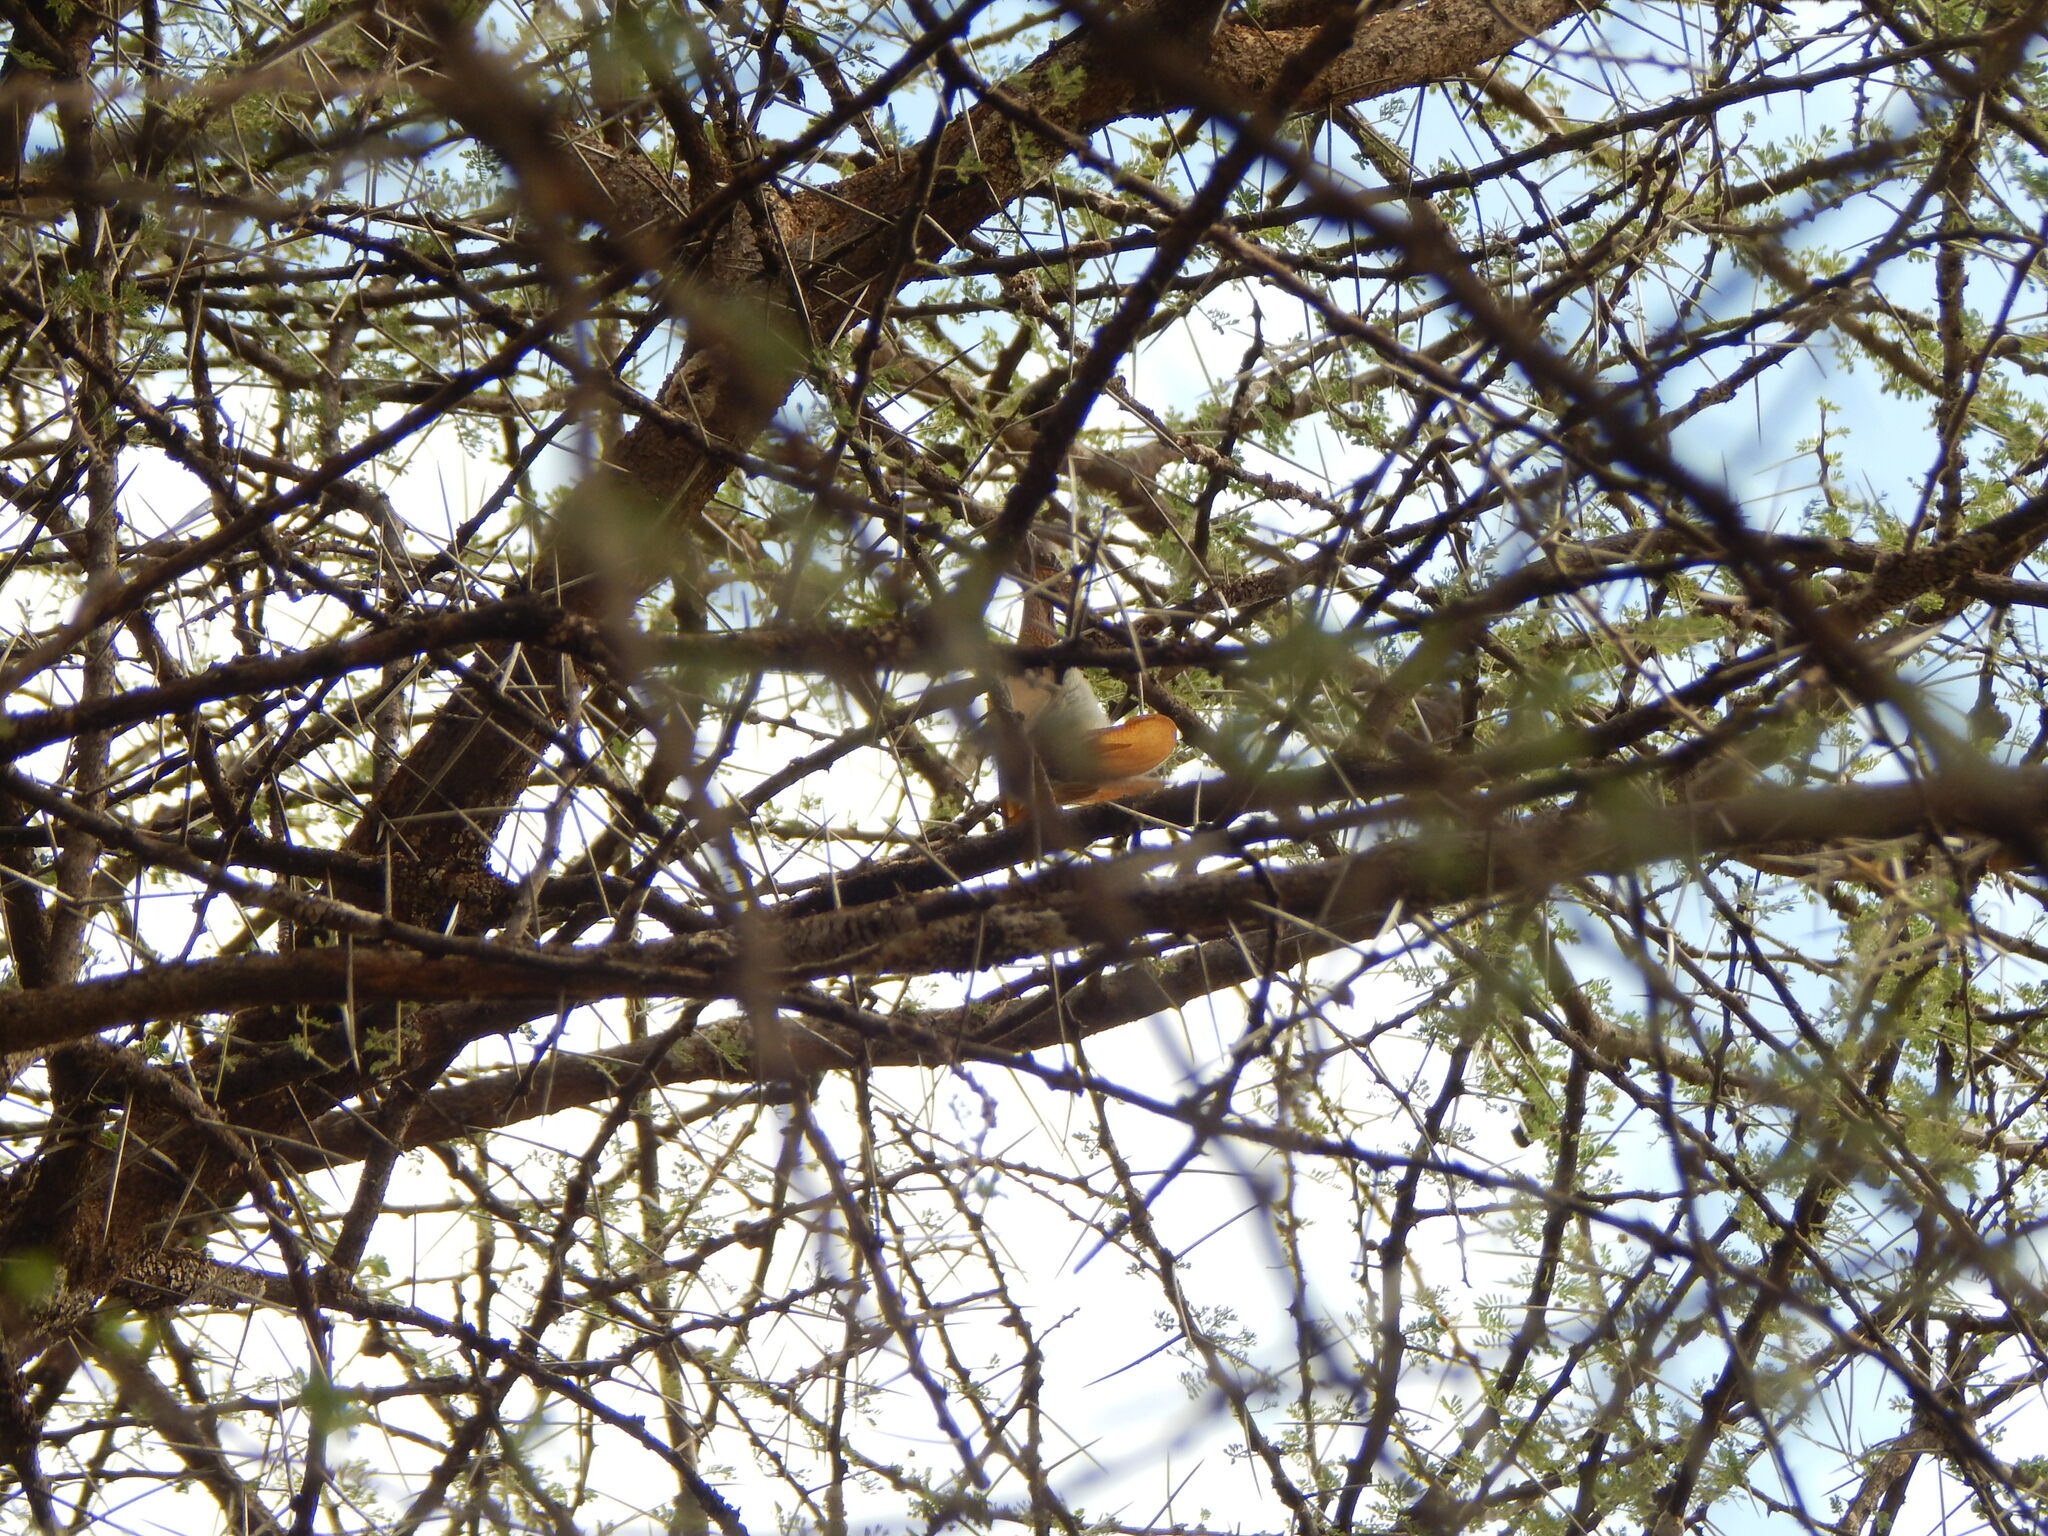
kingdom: Animalia
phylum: Chordata
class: Mammalia
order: Chiroptera
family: Megadermatidae
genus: Lavia
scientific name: Lavia frons
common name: Yellow-winged bat
